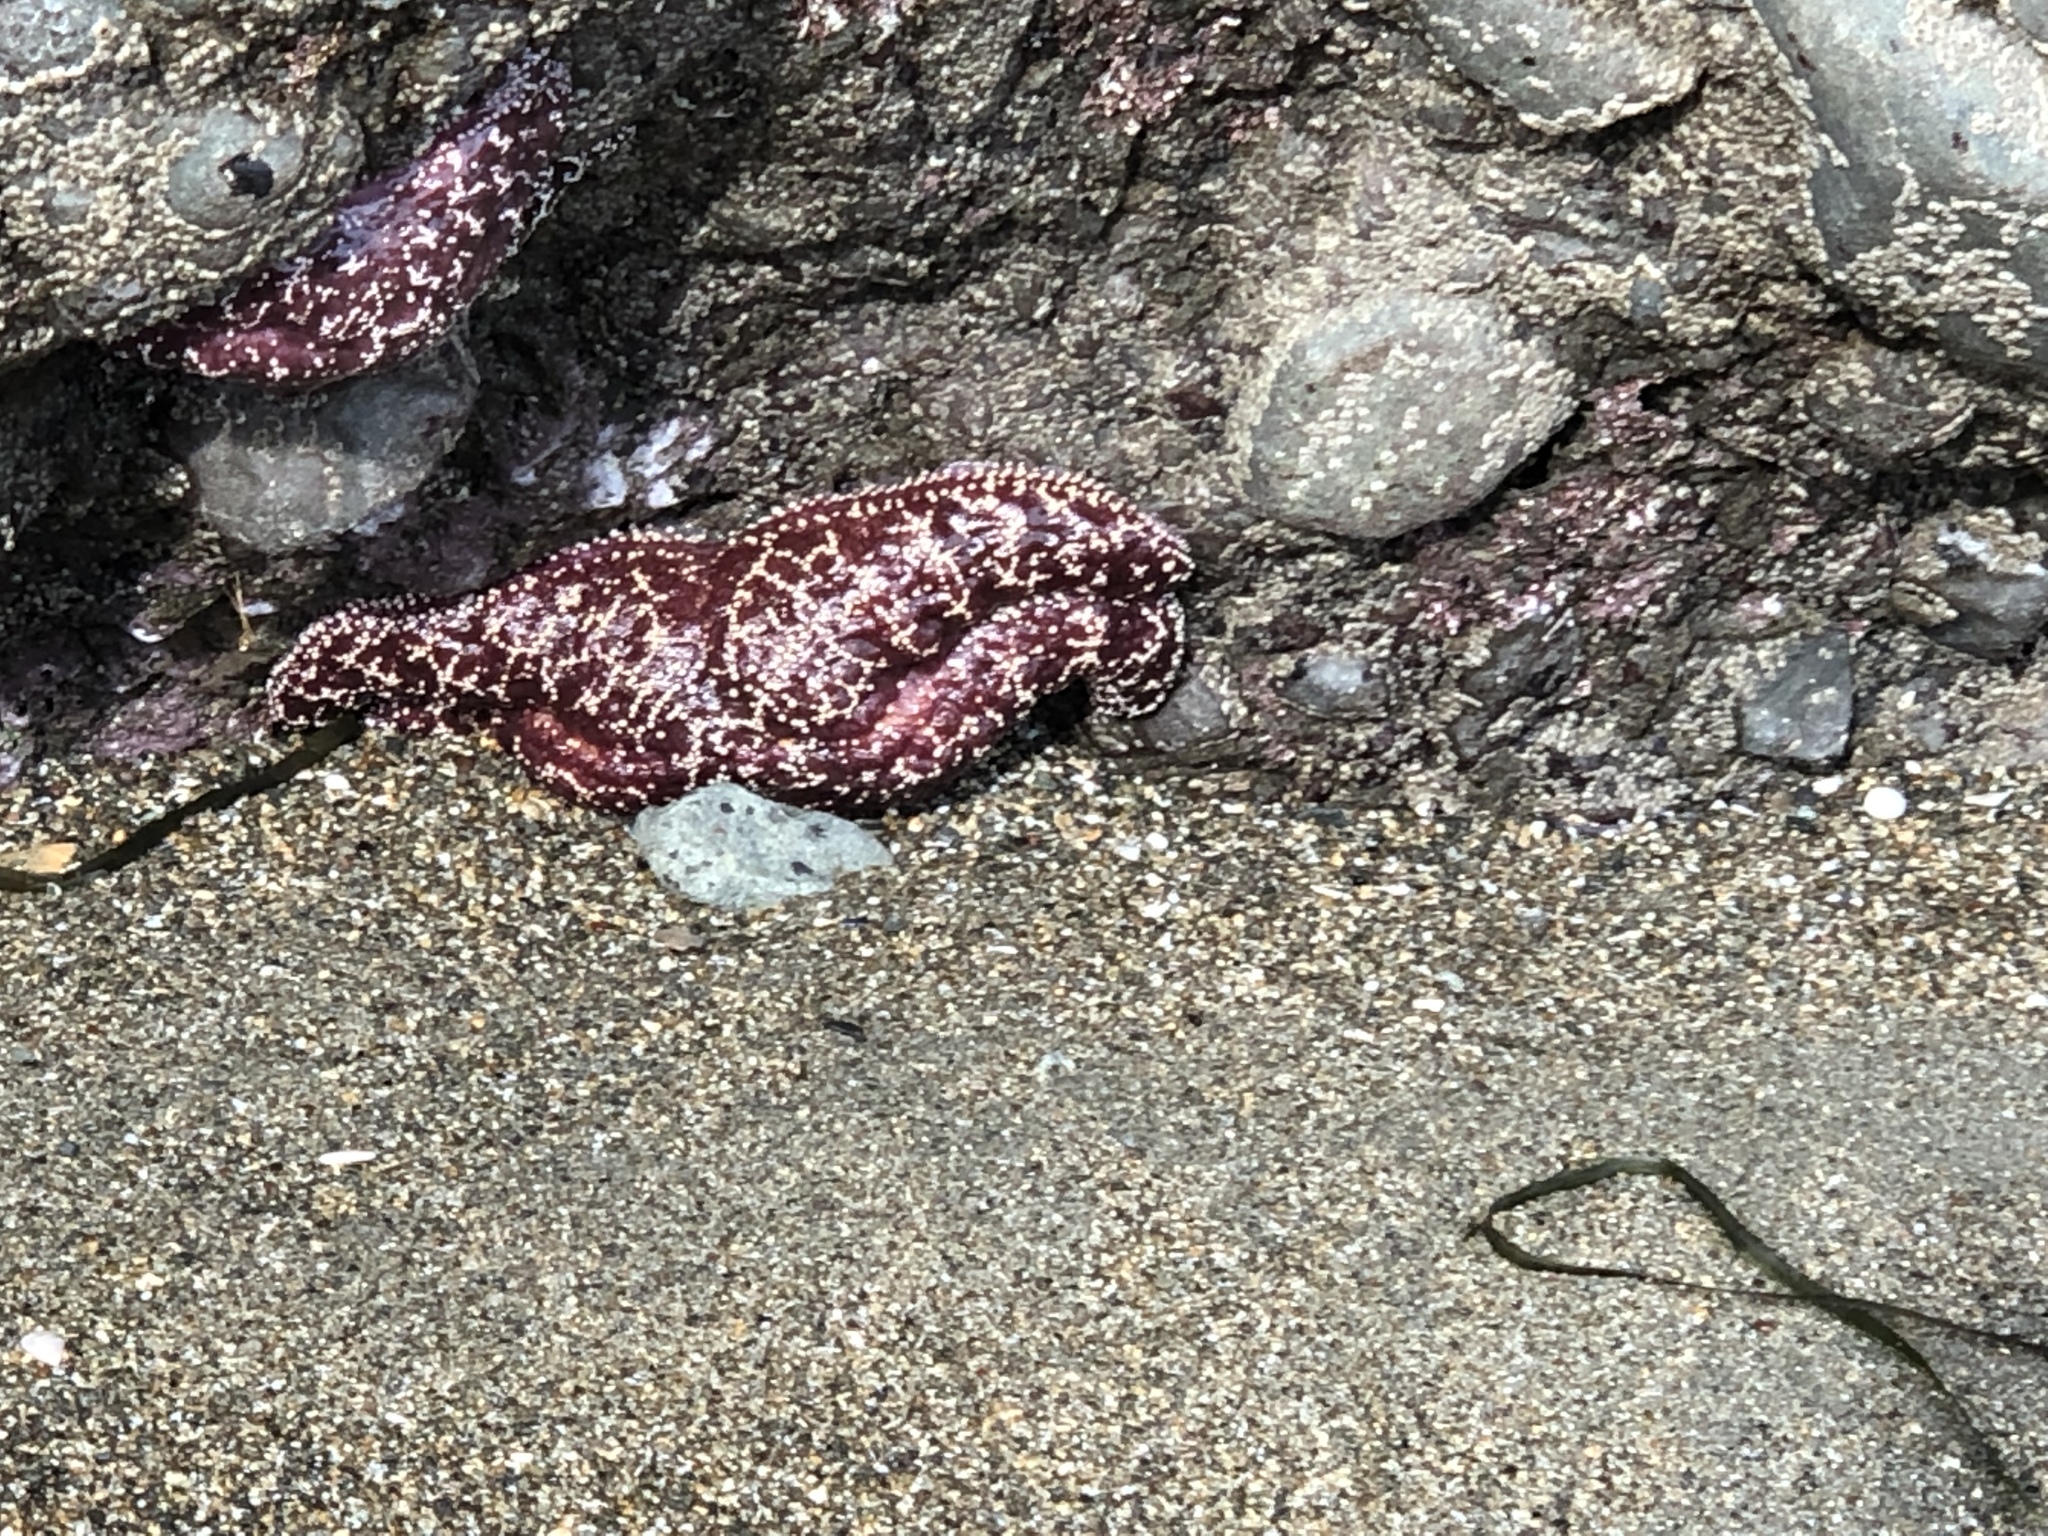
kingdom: Animalia
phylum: Echinodermata
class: Asteroidea
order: Forcipulatida
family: Asteriidae
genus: Pisaster
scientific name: Pisaster ochraceus
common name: Ochre stars
